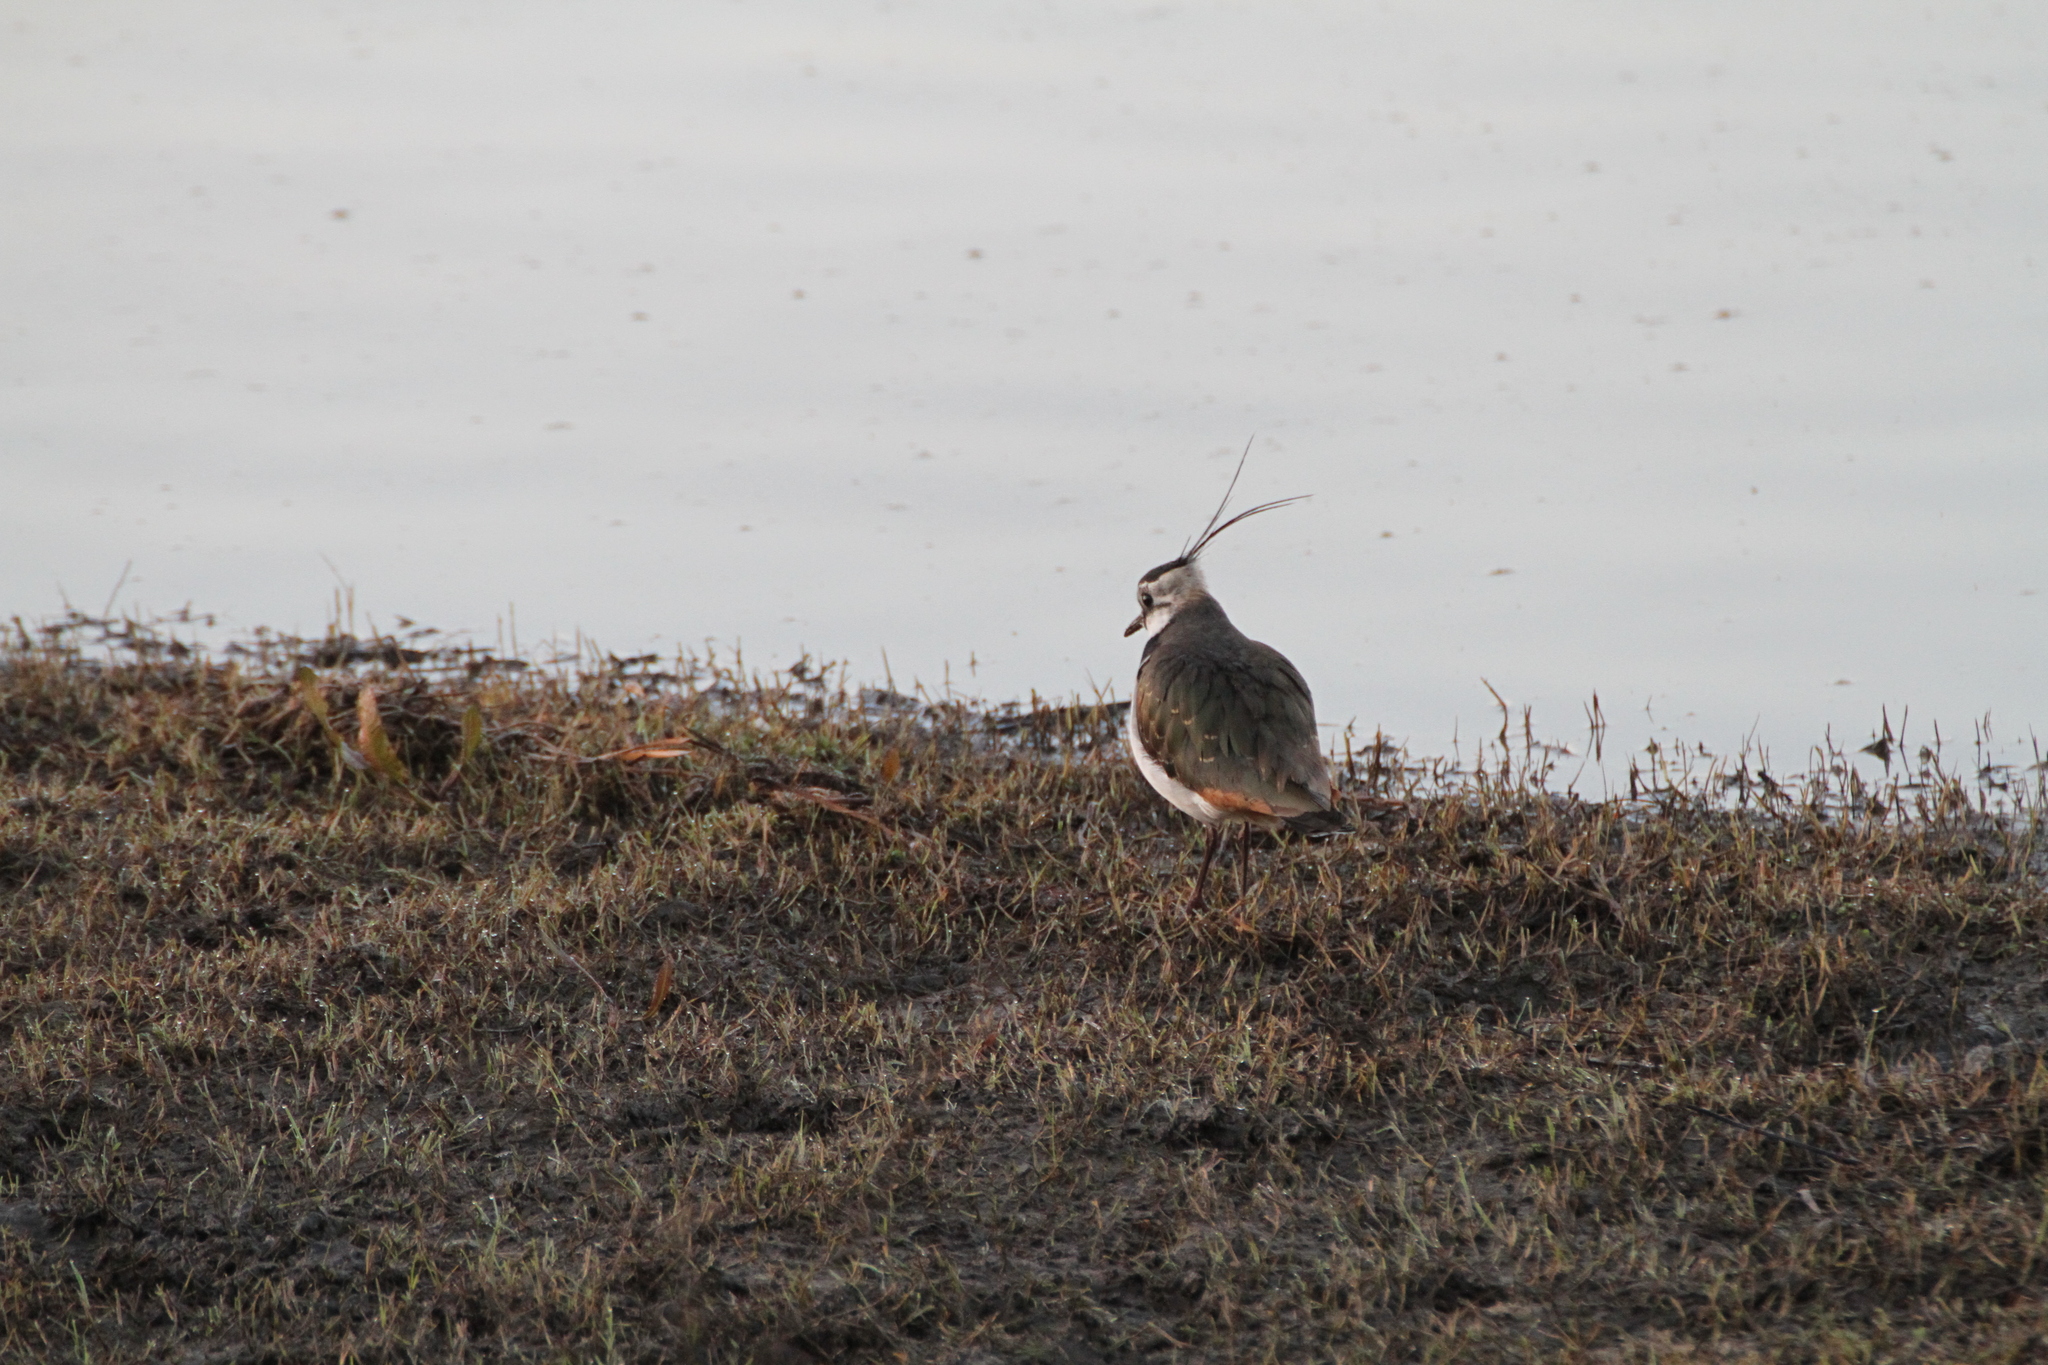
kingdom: Animalia
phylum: Chordata
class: Aves
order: Charadriiformes
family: Charadriidae
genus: Vanellus
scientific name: Vanellus vanellus
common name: Northern lapwing
